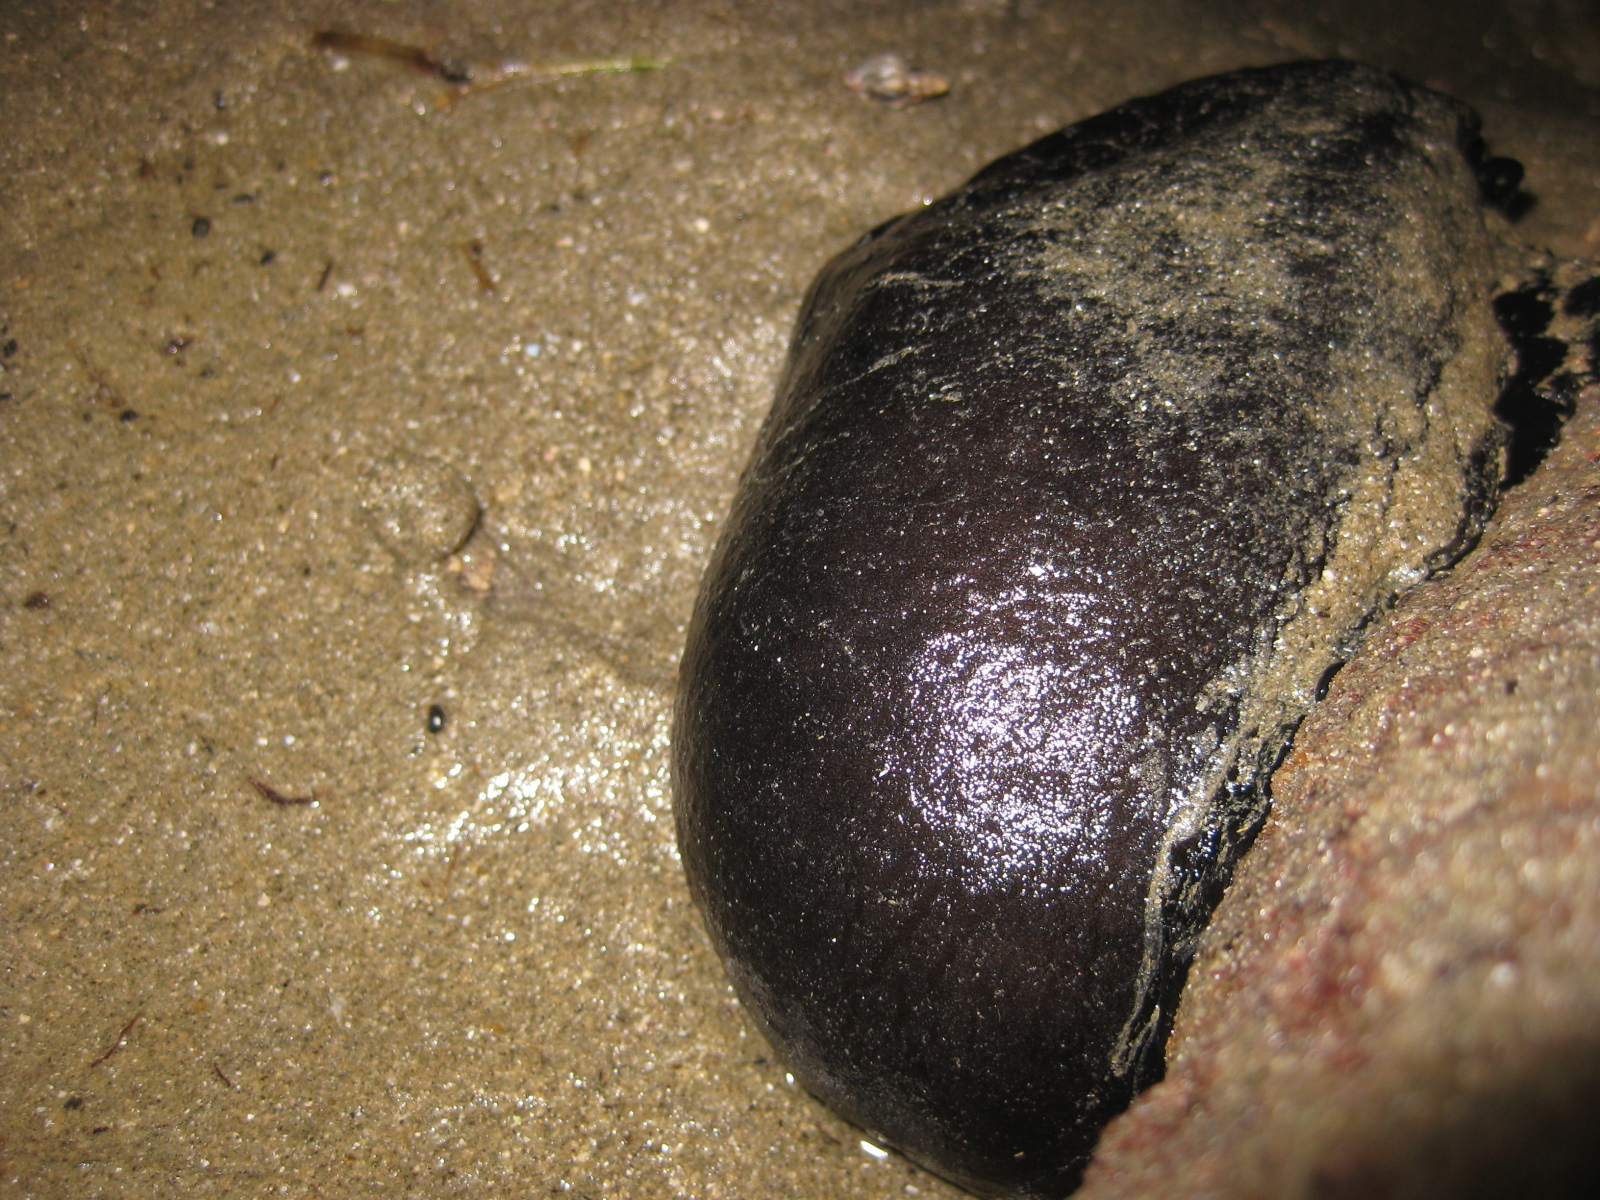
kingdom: Animalia
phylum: Mollusca
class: Gastropoda
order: Lepetellida
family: Fissurellidae
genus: Scutus
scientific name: Scutus breviculus
